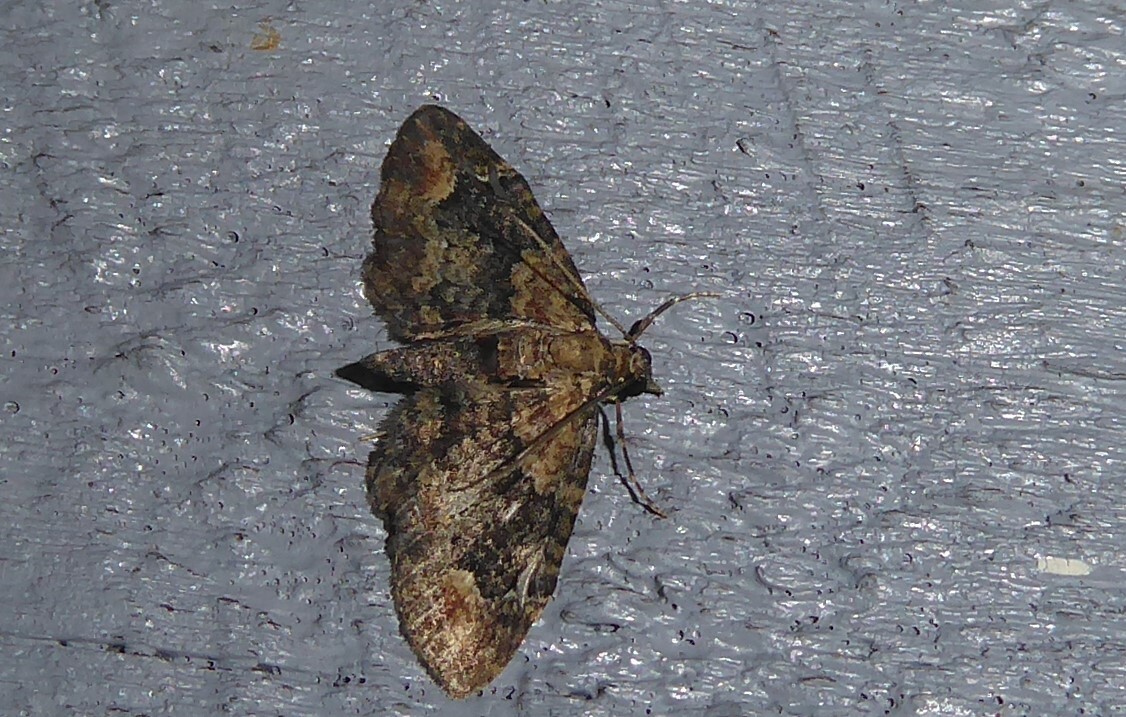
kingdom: Animalia
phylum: Arthropoda
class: Insecta
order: Lepidoptera
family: Geometridae
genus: Pasiphilodes
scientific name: Pasiphilodes testulata
